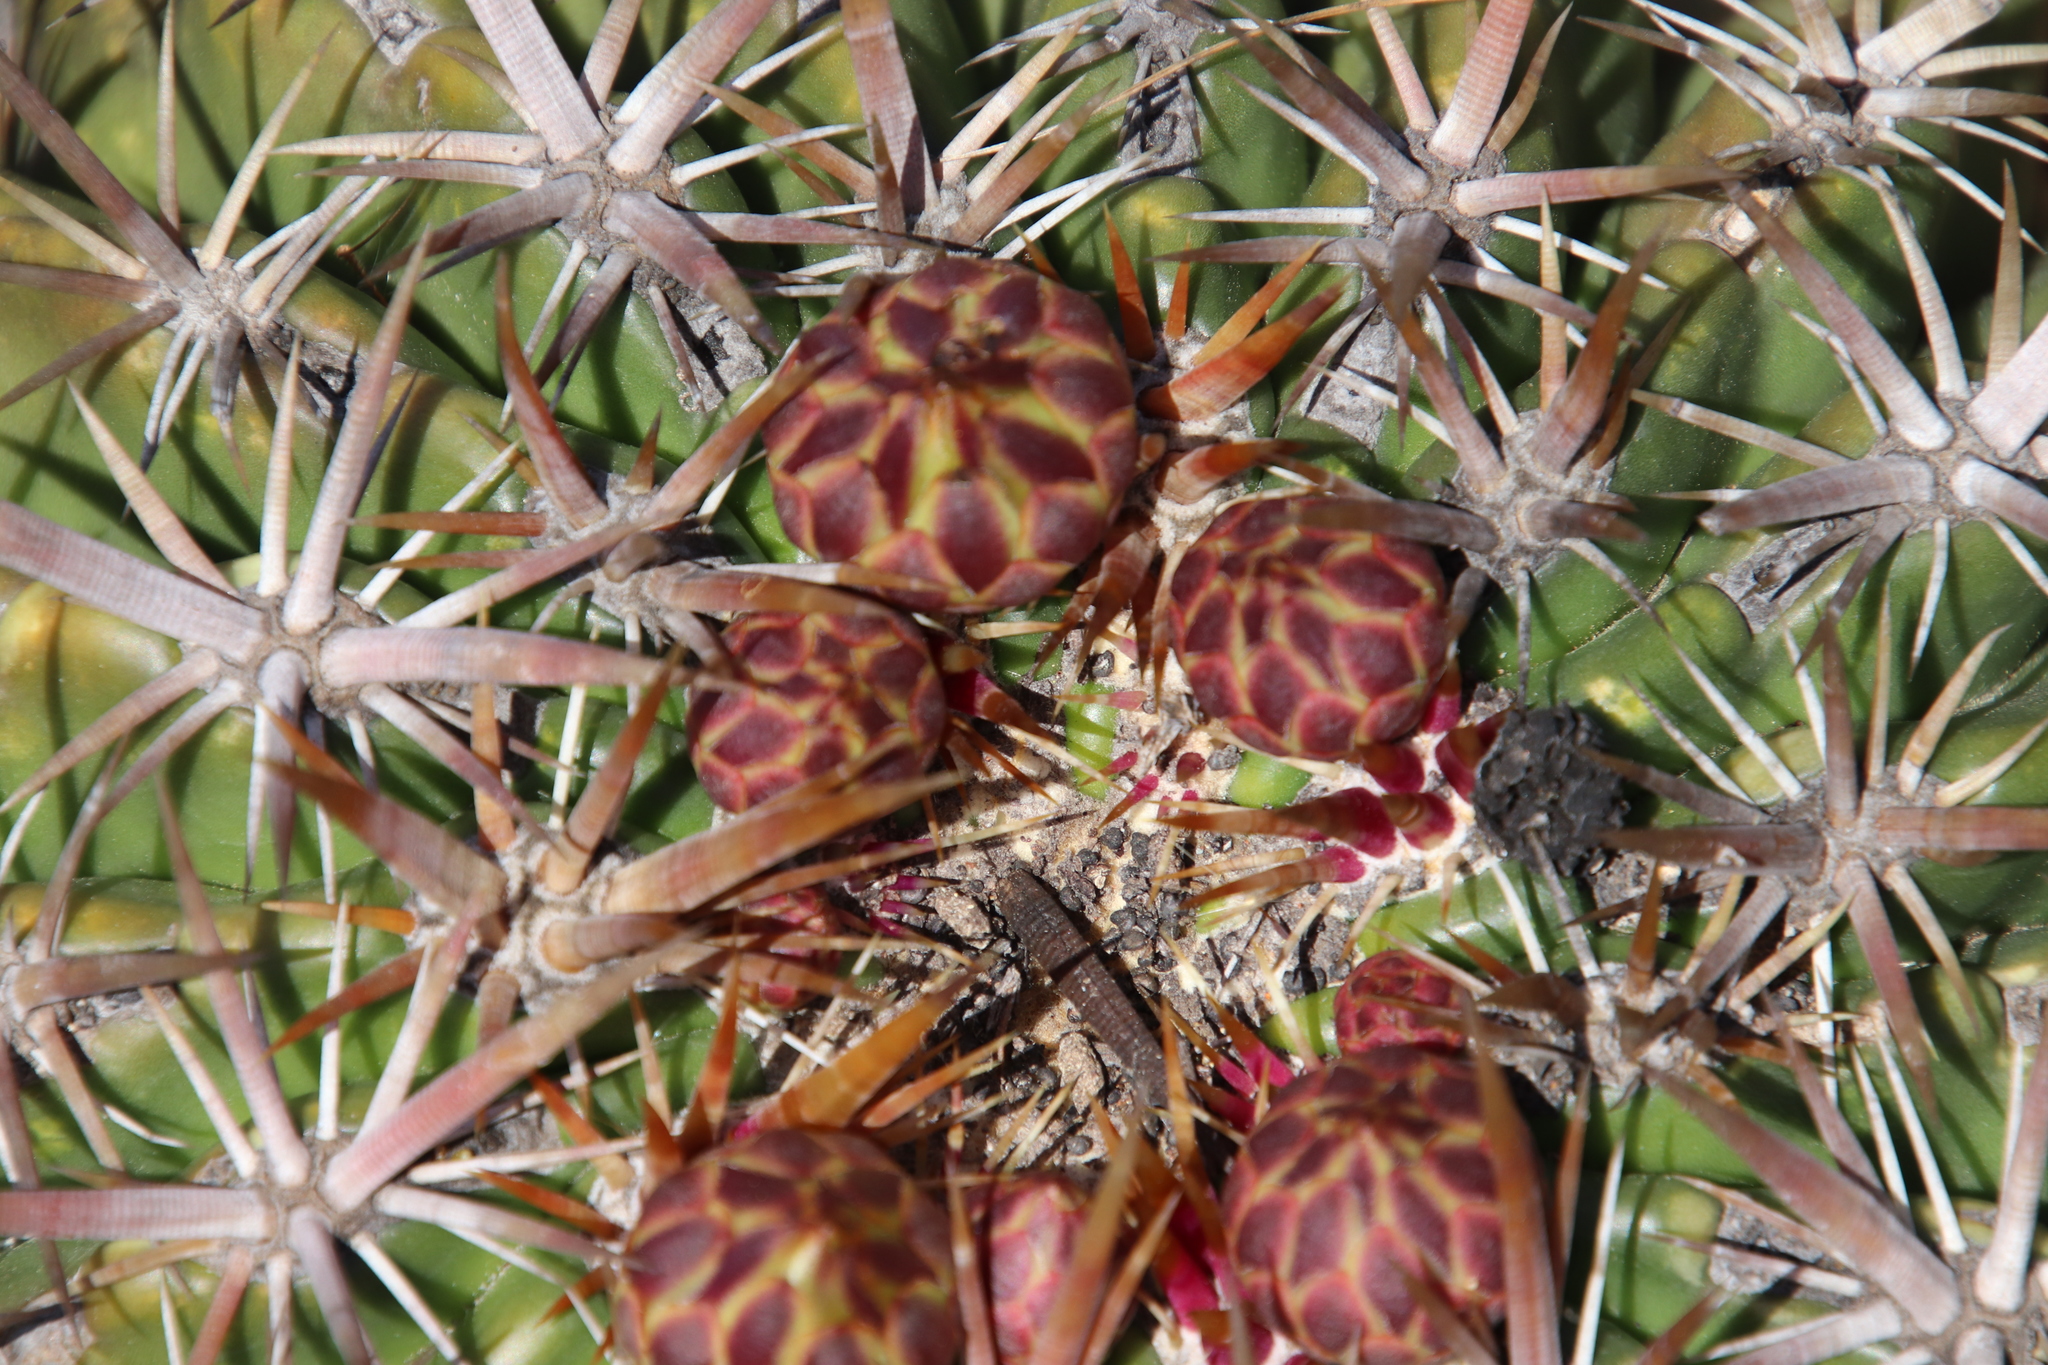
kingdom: Plantae
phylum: Tracheophyta
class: Magnoliopsida
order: Caryophyllales
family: Cactaceae
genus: Ferocactus
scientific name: Ferocactus viridescens
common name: San diego barrel cactus
